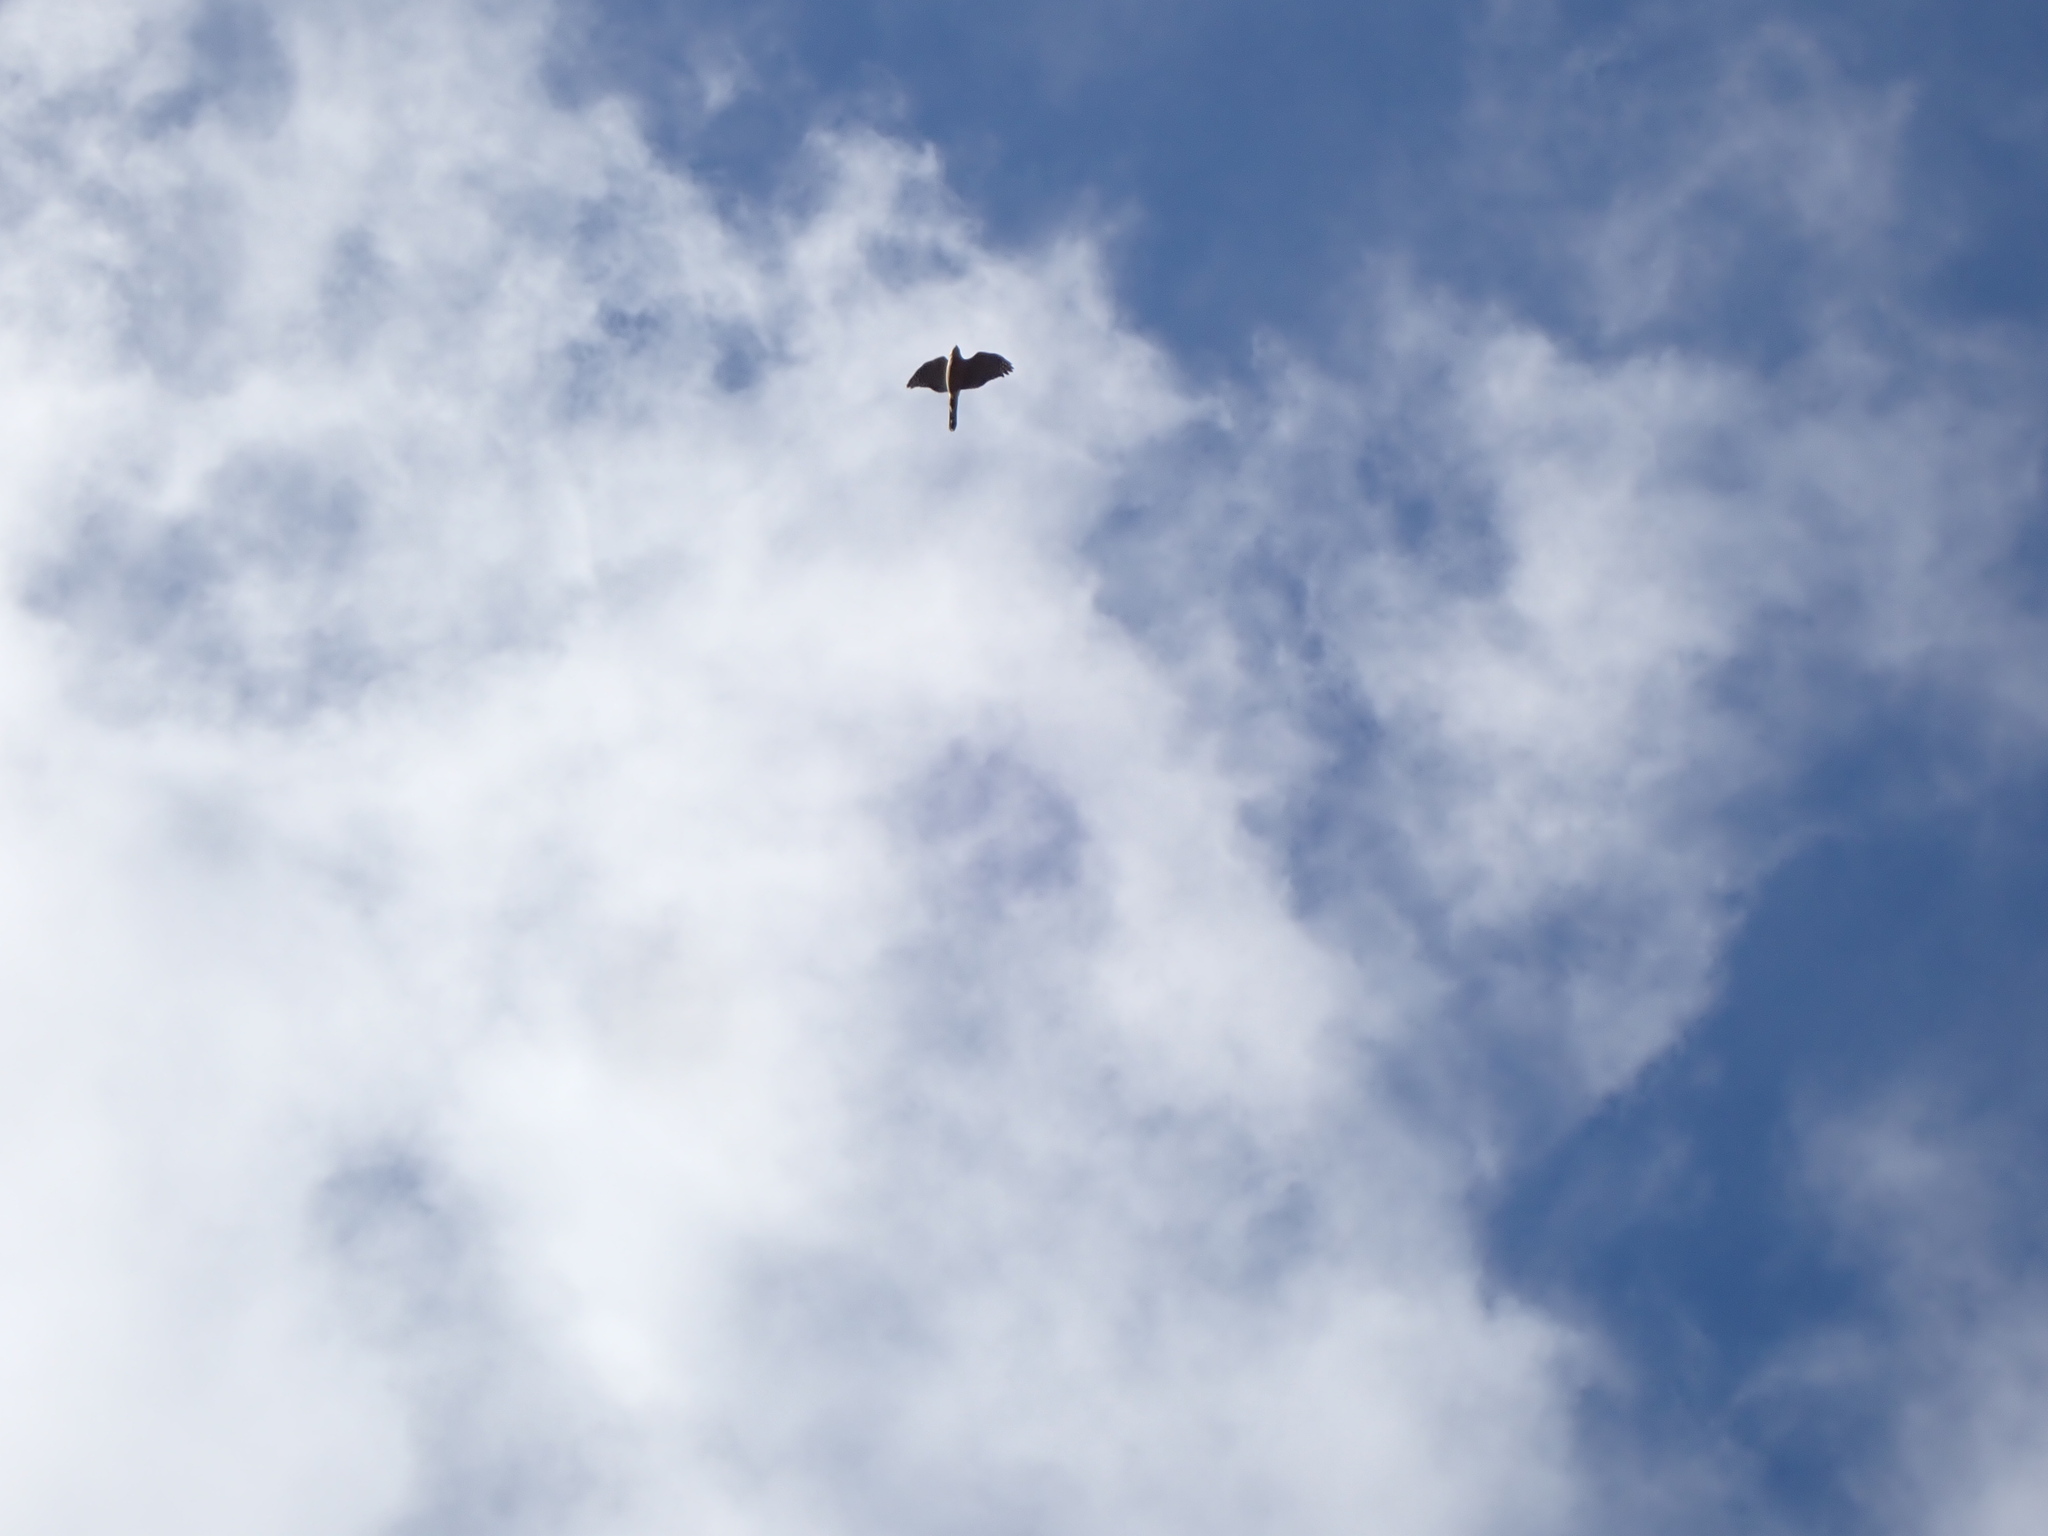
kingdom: Animalia
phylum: Chordata
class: Aves
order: Accipitriformes
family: Accipitridae
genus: Accipiter
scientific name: Accipiter cooperii
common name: Cooper's hawk
